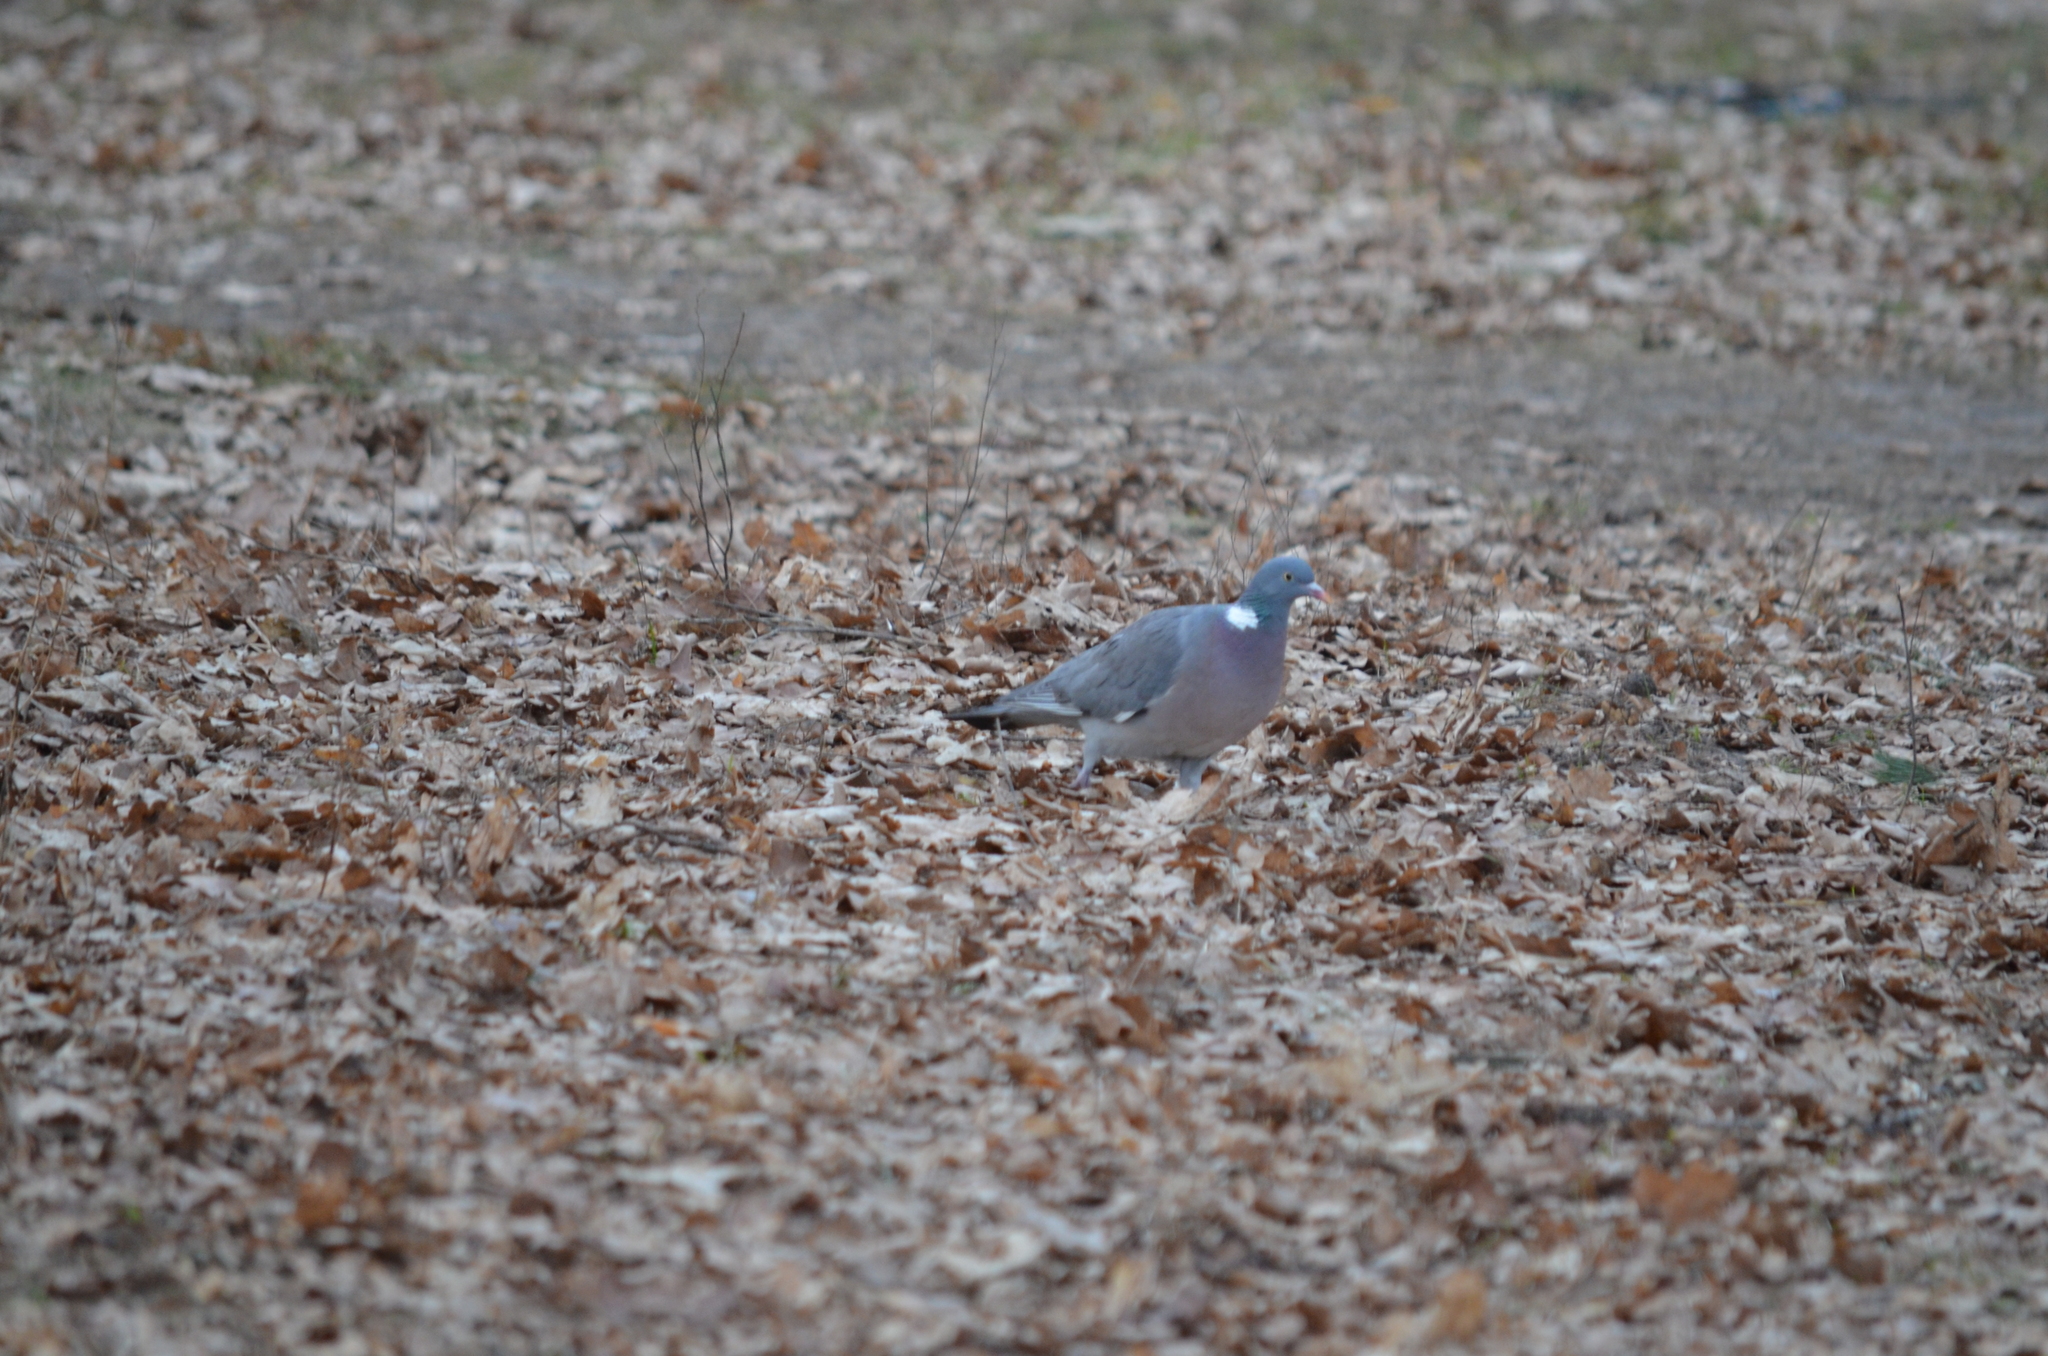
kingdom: Animalia
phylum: Chordata
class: Aves
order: Columbiformes
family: Columbidae
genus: Columba
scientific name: Columba palumbus
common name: Common wood pigeon
